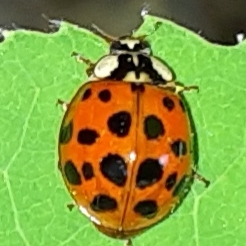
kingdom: Animalia
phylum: Arthropoda
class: Insecta
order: Coleoptera
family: Coccinellidae
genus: Harmonia
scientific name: Harmonia axyridis
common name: Harlequin ladybird
